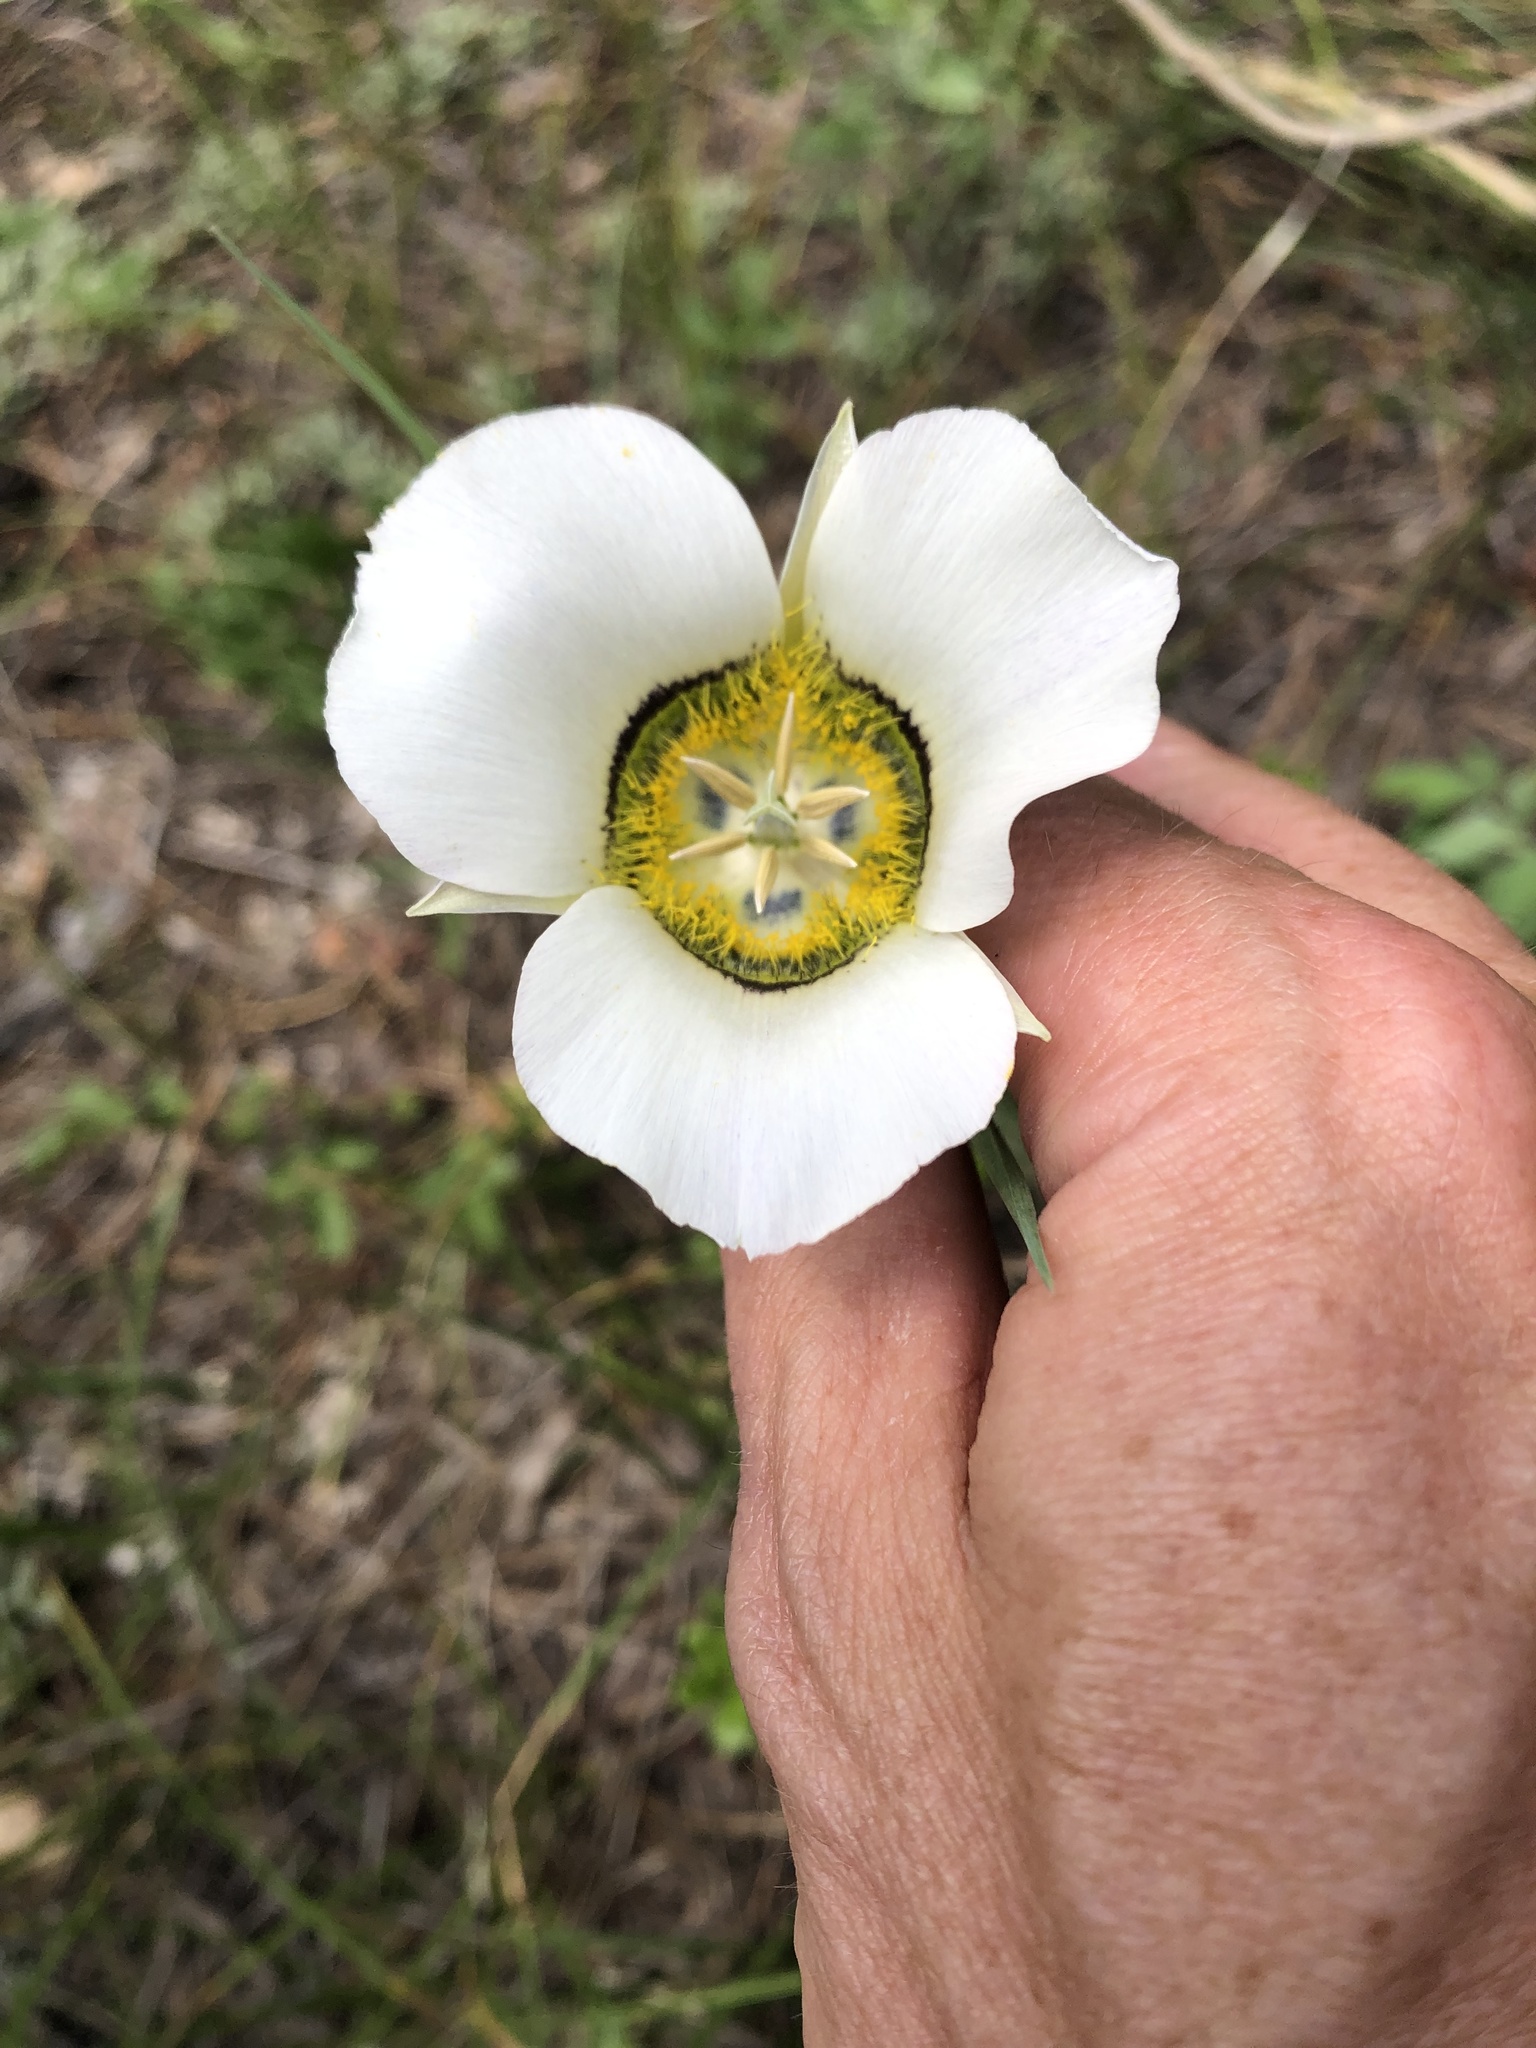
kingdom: Plantae
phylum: Tracheophyta
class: Liliopsida
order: Liliales
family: Liliaceae
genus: Calochortus
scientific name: Calochortus gunnisonii
